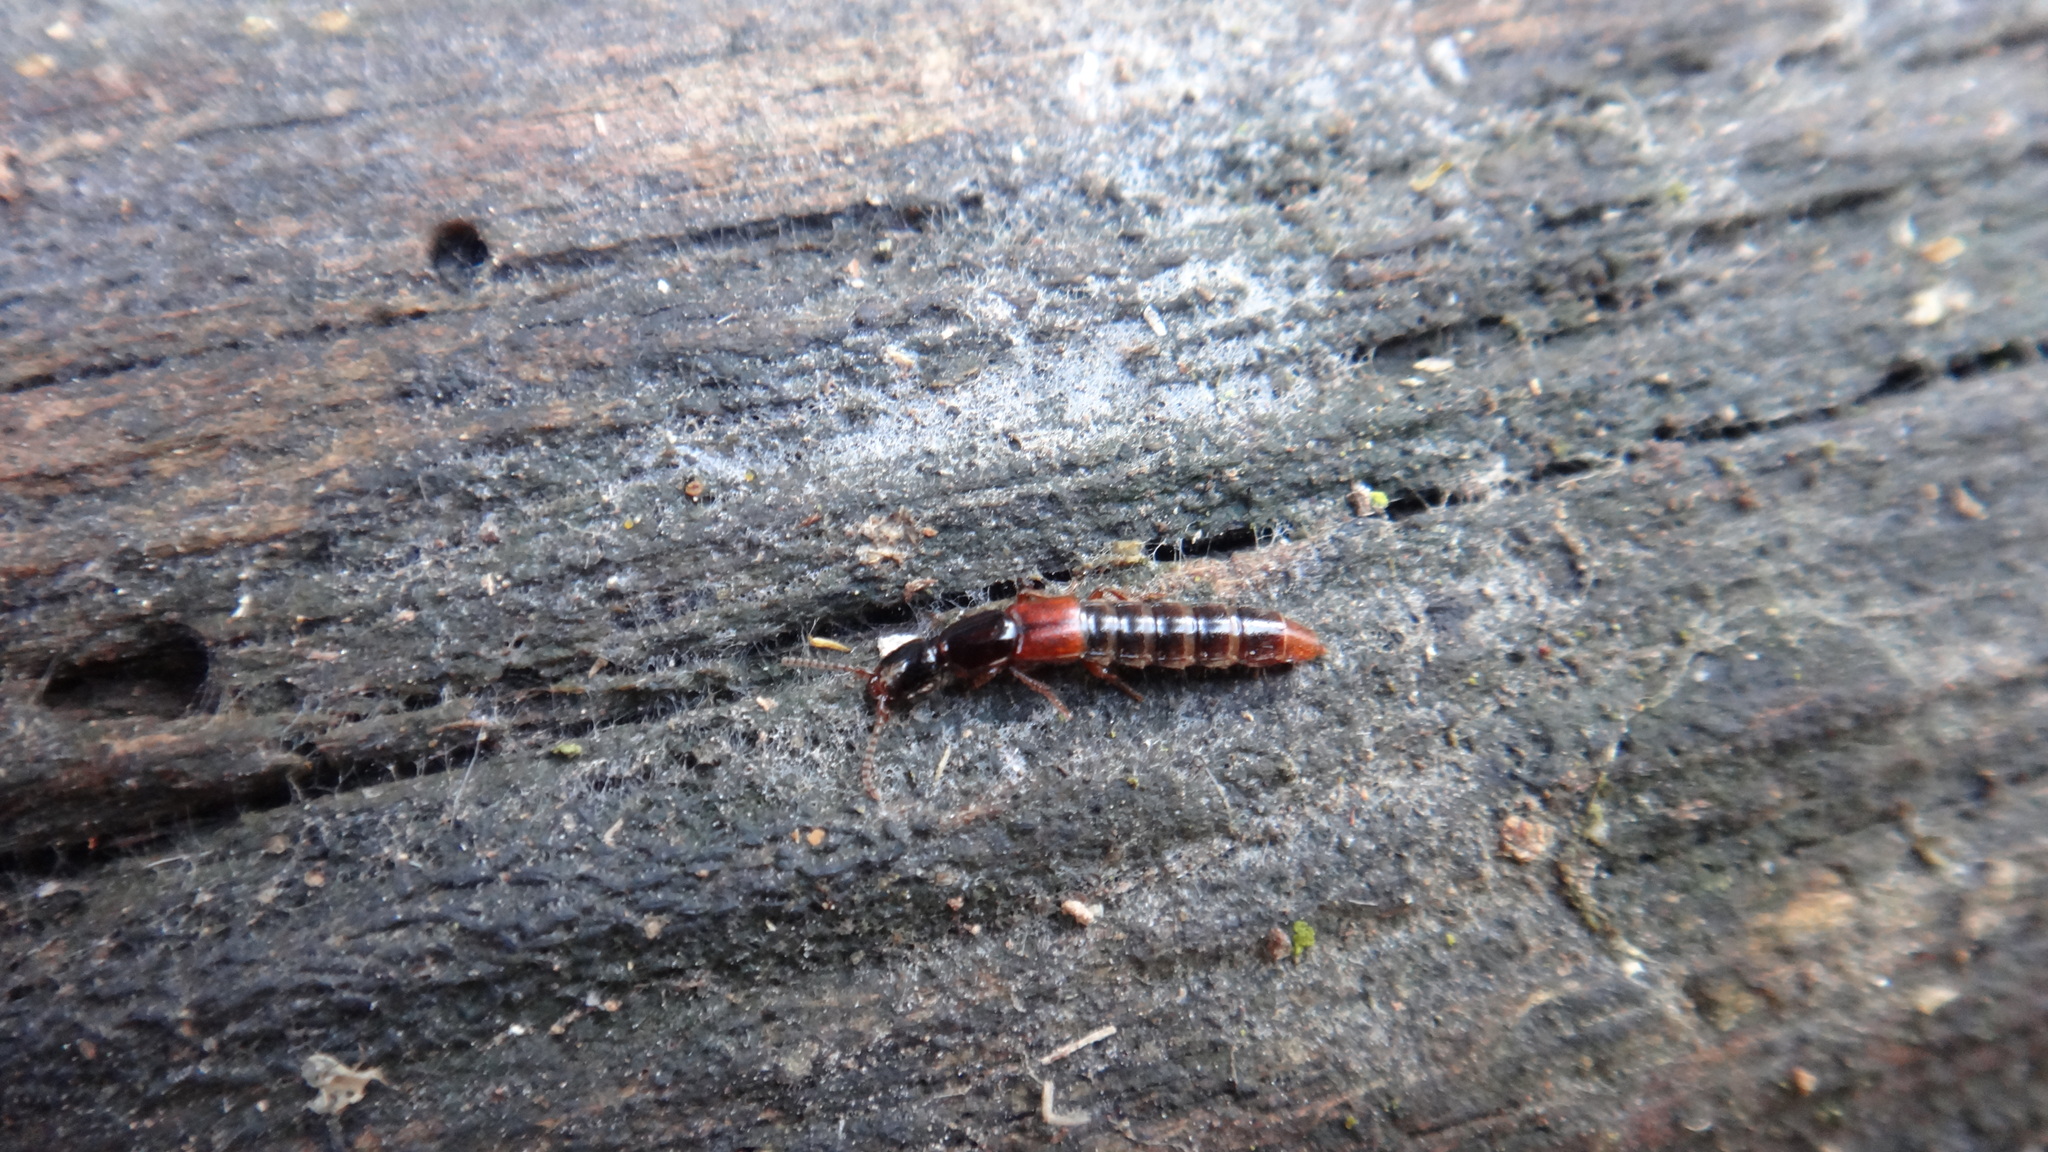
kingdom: Animalia
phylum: Arthropoda
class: Insecta
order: Coleoptera
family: Staphylinidae
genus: Othius
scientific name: Othius punctulatus
